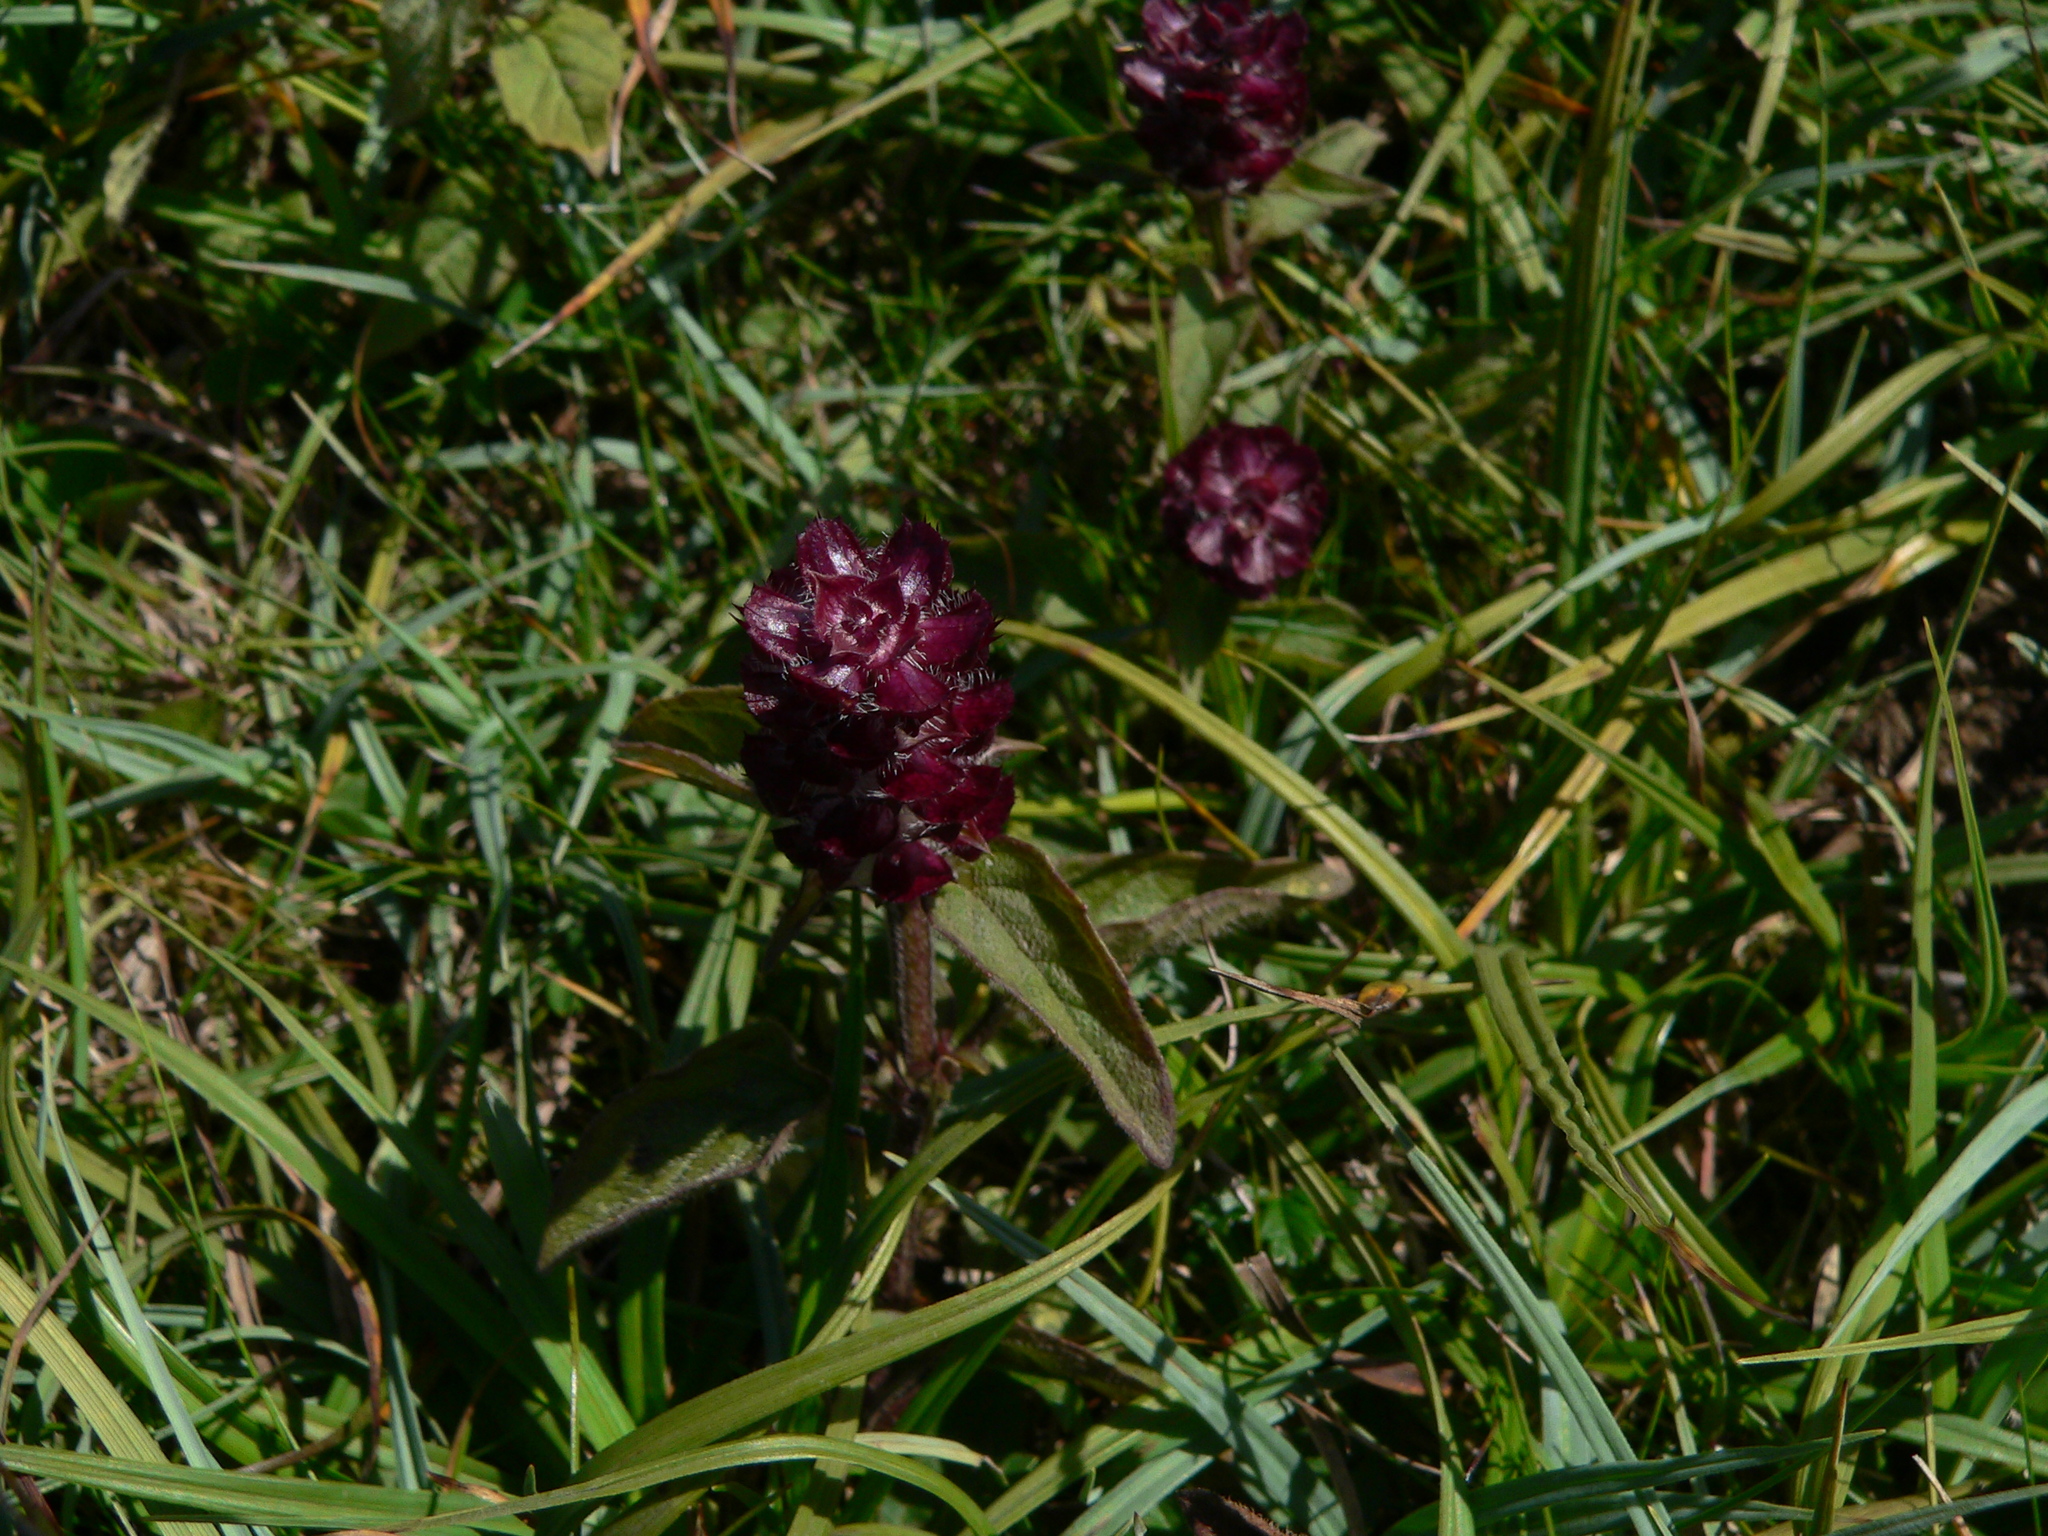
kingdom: Plantae
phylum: Tracheophyta
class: Magnoliopsida
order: Lamiales
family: Lamiaceae
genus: Prunella
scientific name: Prunella vulgaris
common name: Heal-all
